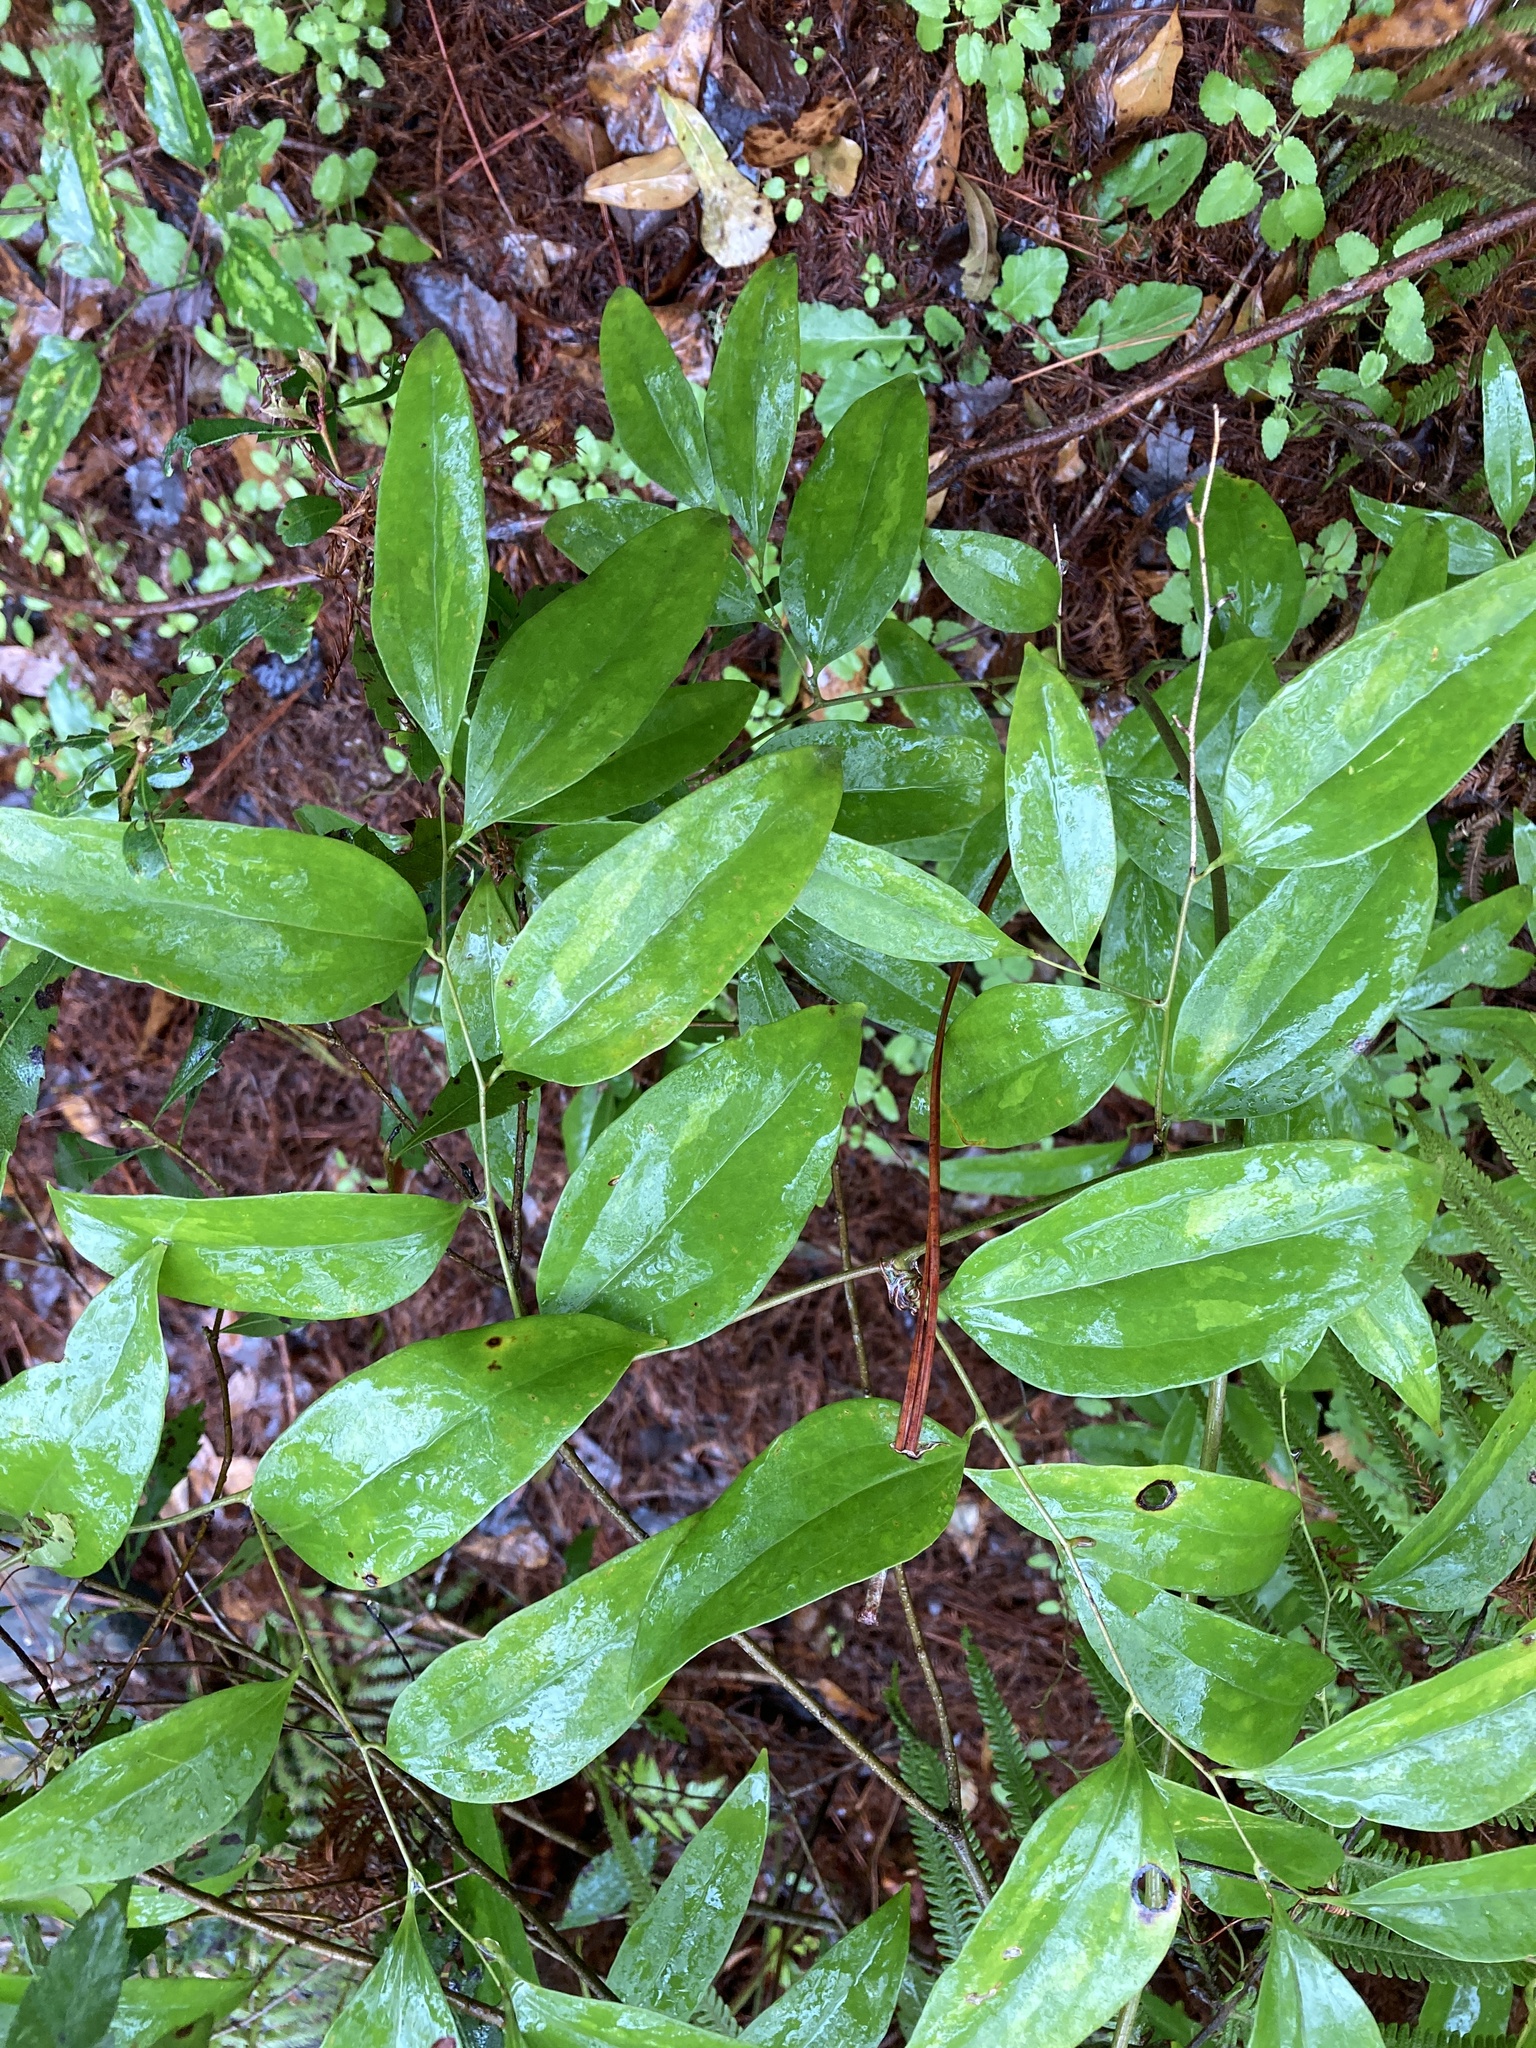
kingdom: Plantae
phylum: Tracheophyta
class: Liliopsida
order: Liliales
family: Smilacaceae
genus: Smilax
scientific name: Smilax maritima
